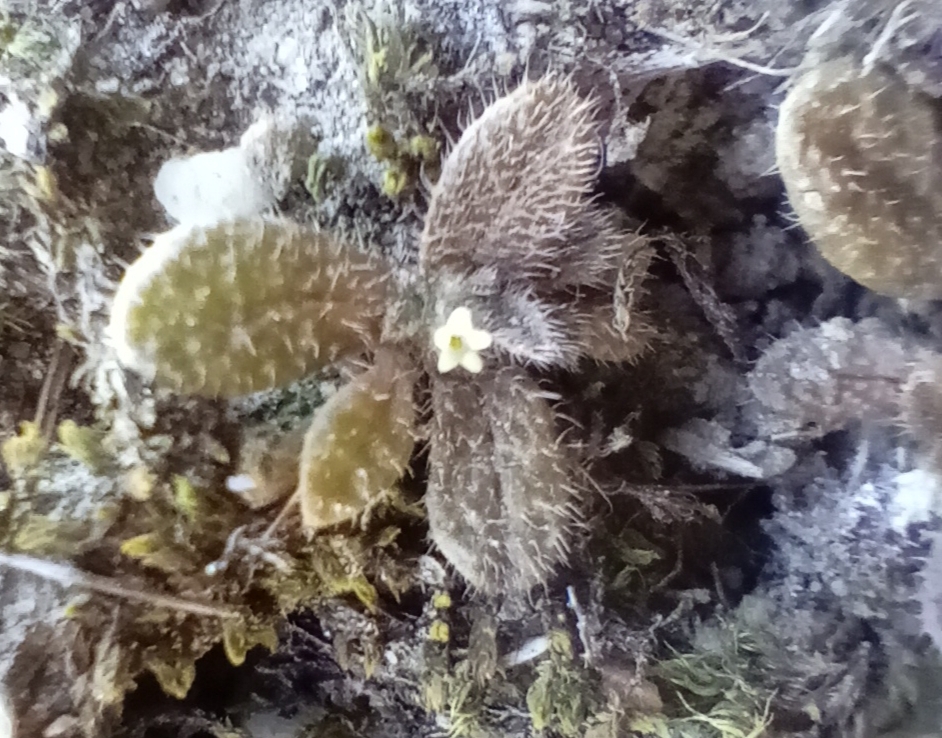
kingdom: Plantae
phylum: Tracheophyta
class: Magnoliopsida
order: Boraginales
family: Boraginaceae
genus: Myosotis
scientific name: Myosotis brevis
